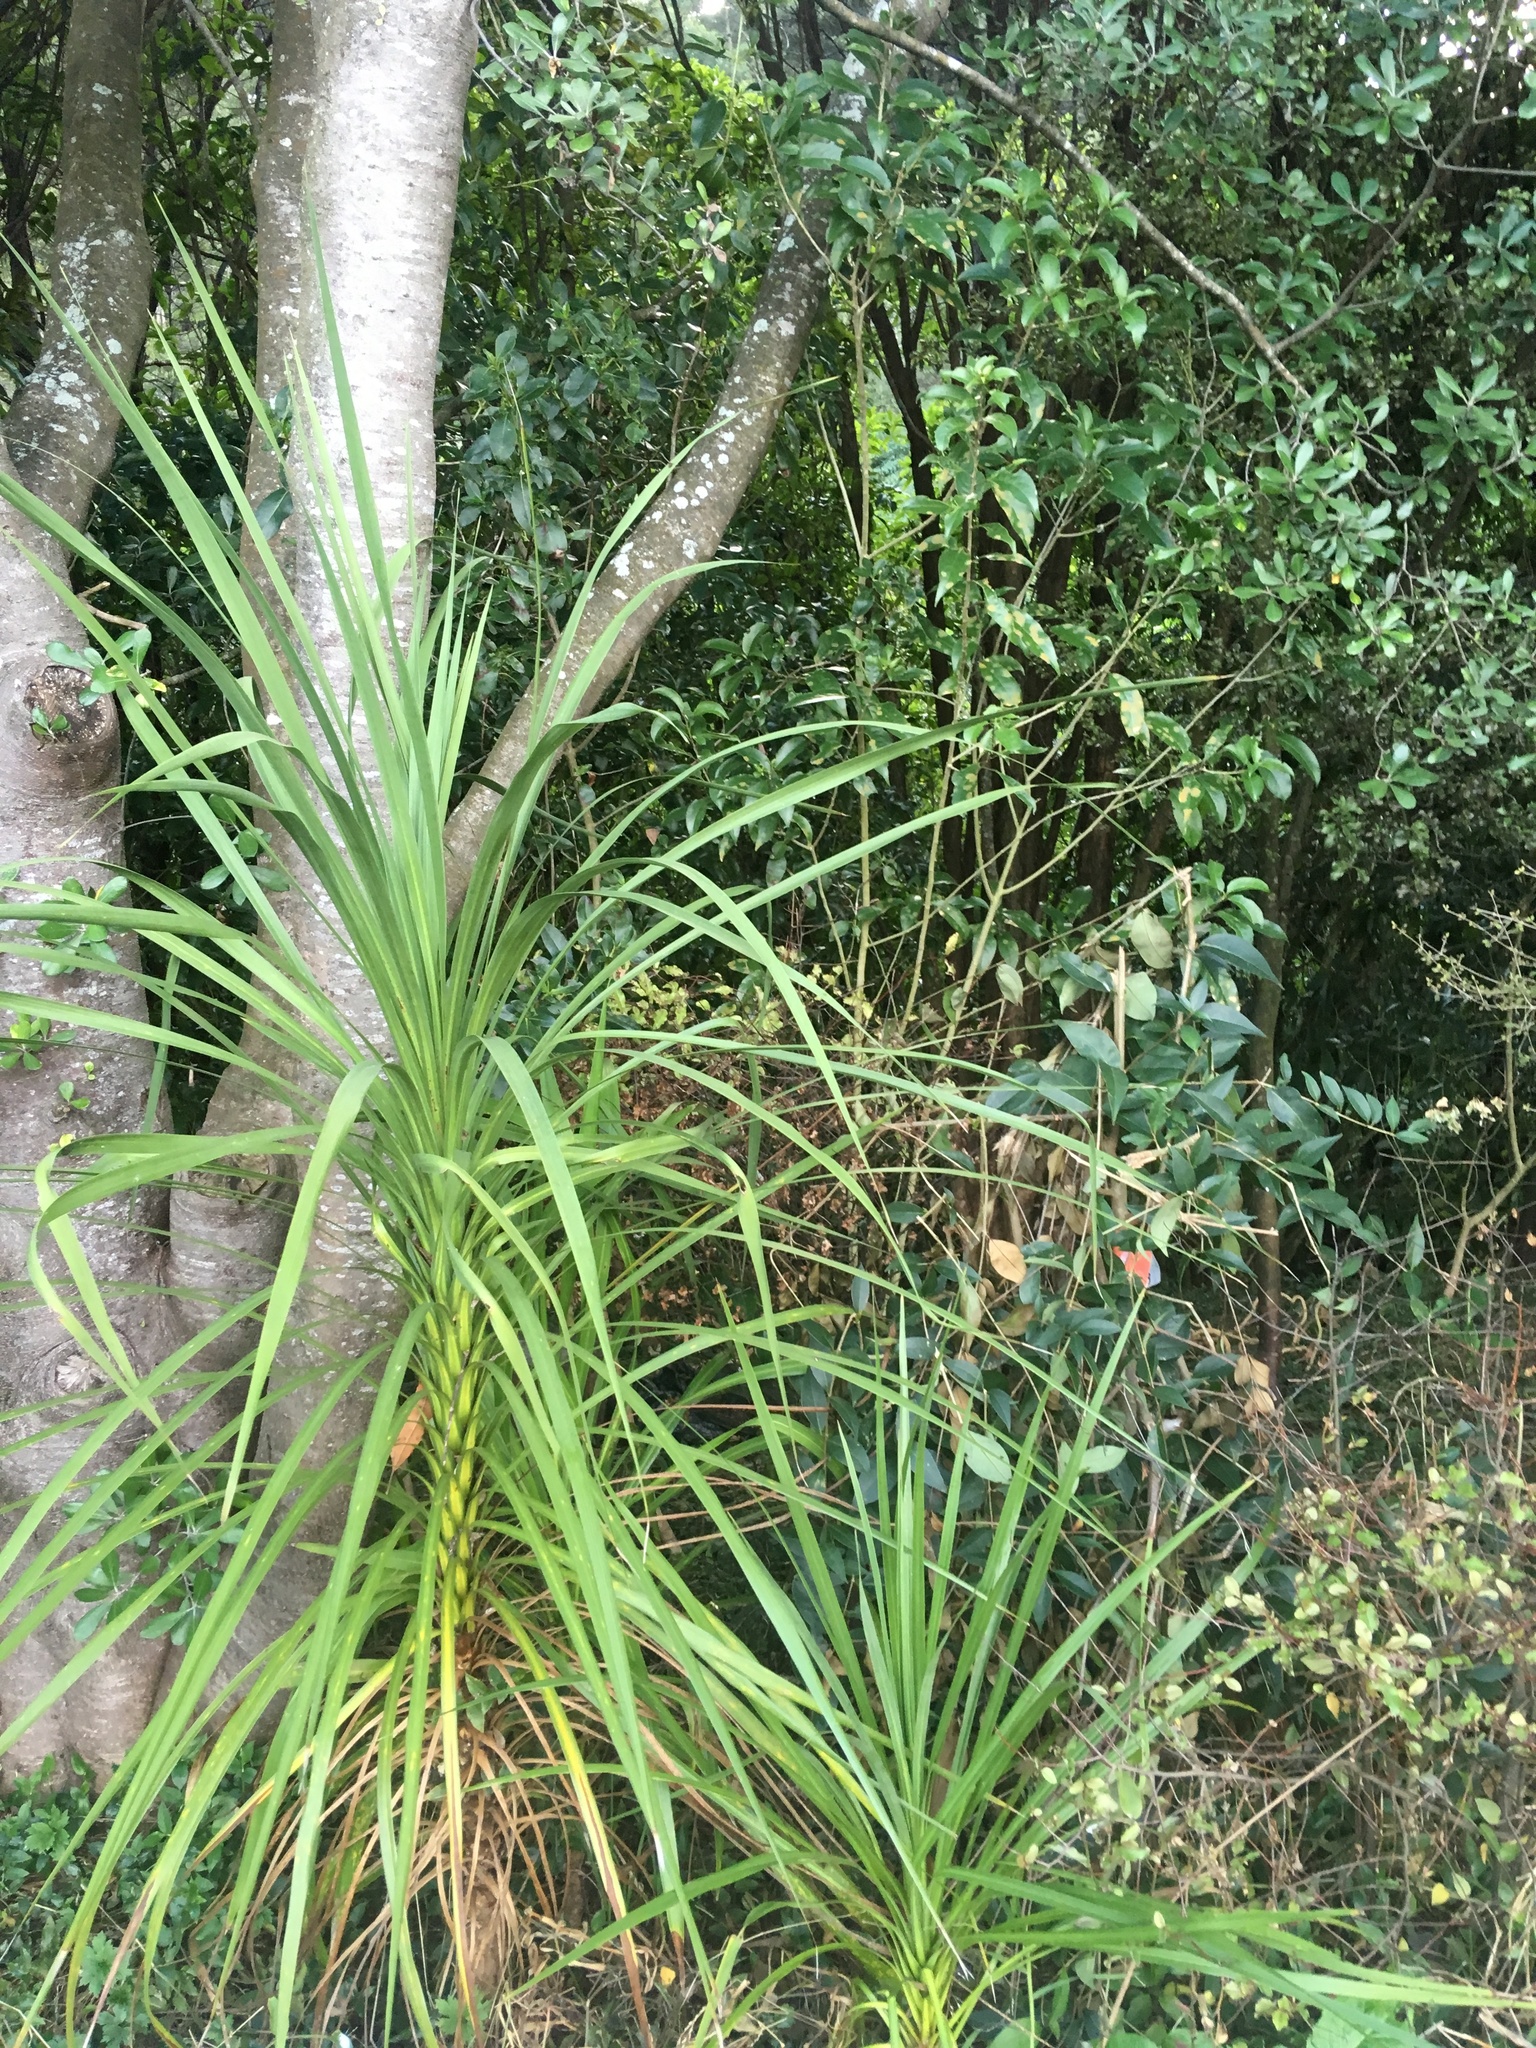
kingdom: Plantae
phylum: Tracheophyta
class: Liliopsida
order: Asparagales
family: Asparagaceae
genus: Cordyline
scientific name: Cordyline australis
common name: Cabbage-palm
